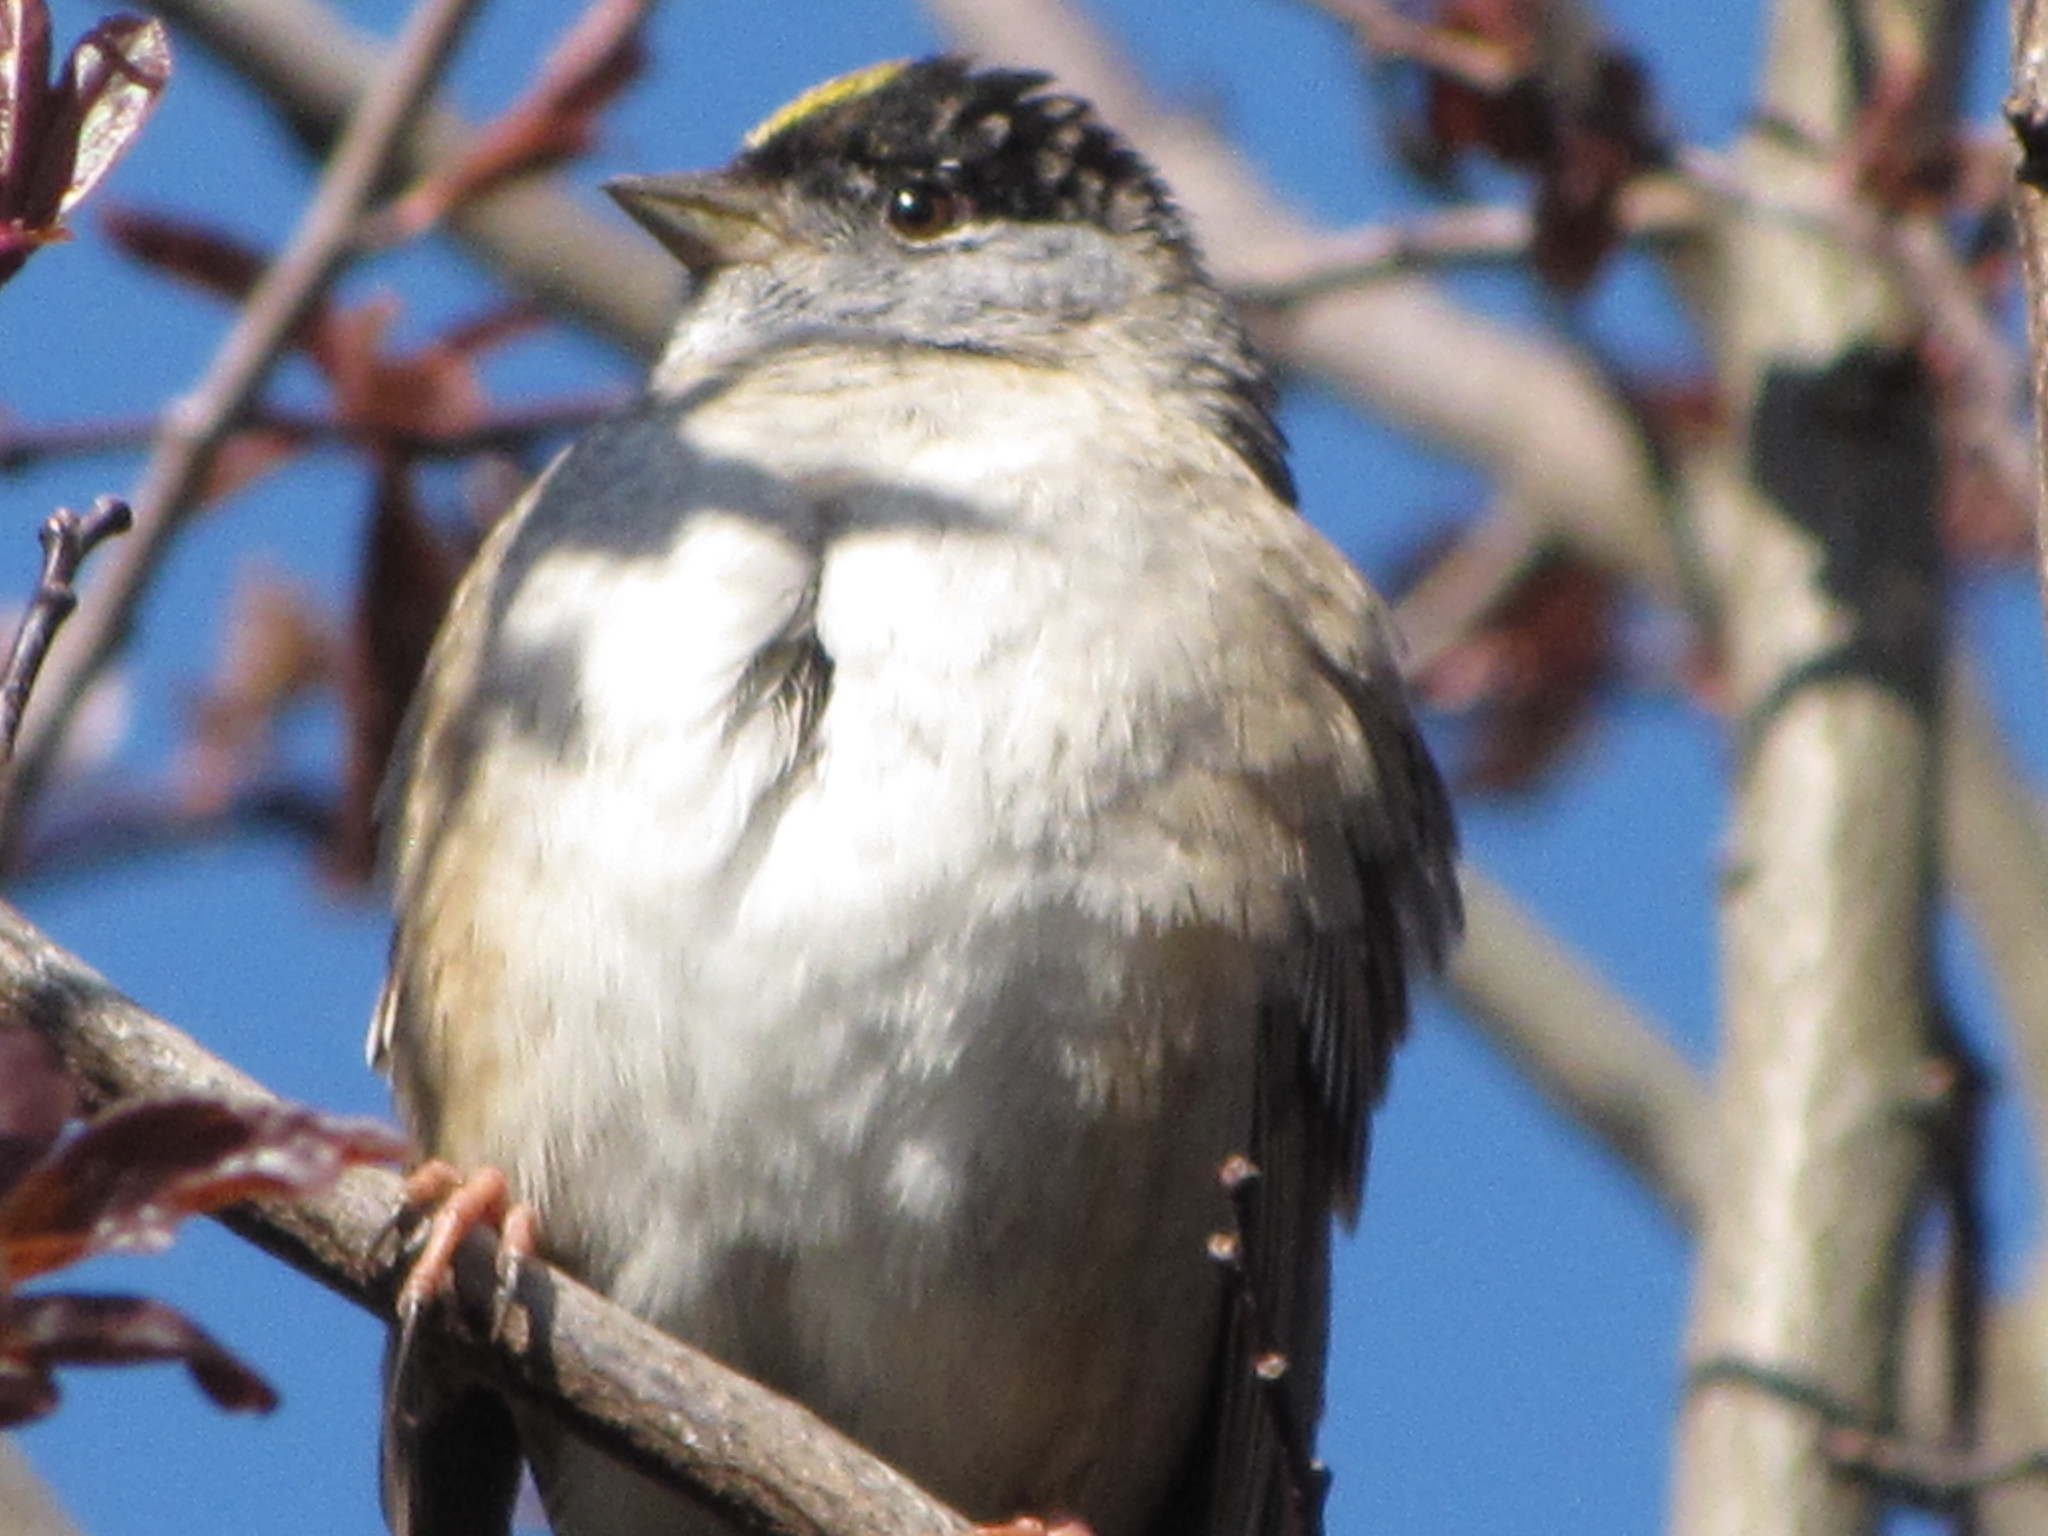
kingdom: Animalia
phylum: Chordata
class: Aves
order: Passeriformes
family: Passerellidae
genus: Zonotrichia
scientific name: Zonotrichia atricapilla
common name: Golden-crowned sparrow
